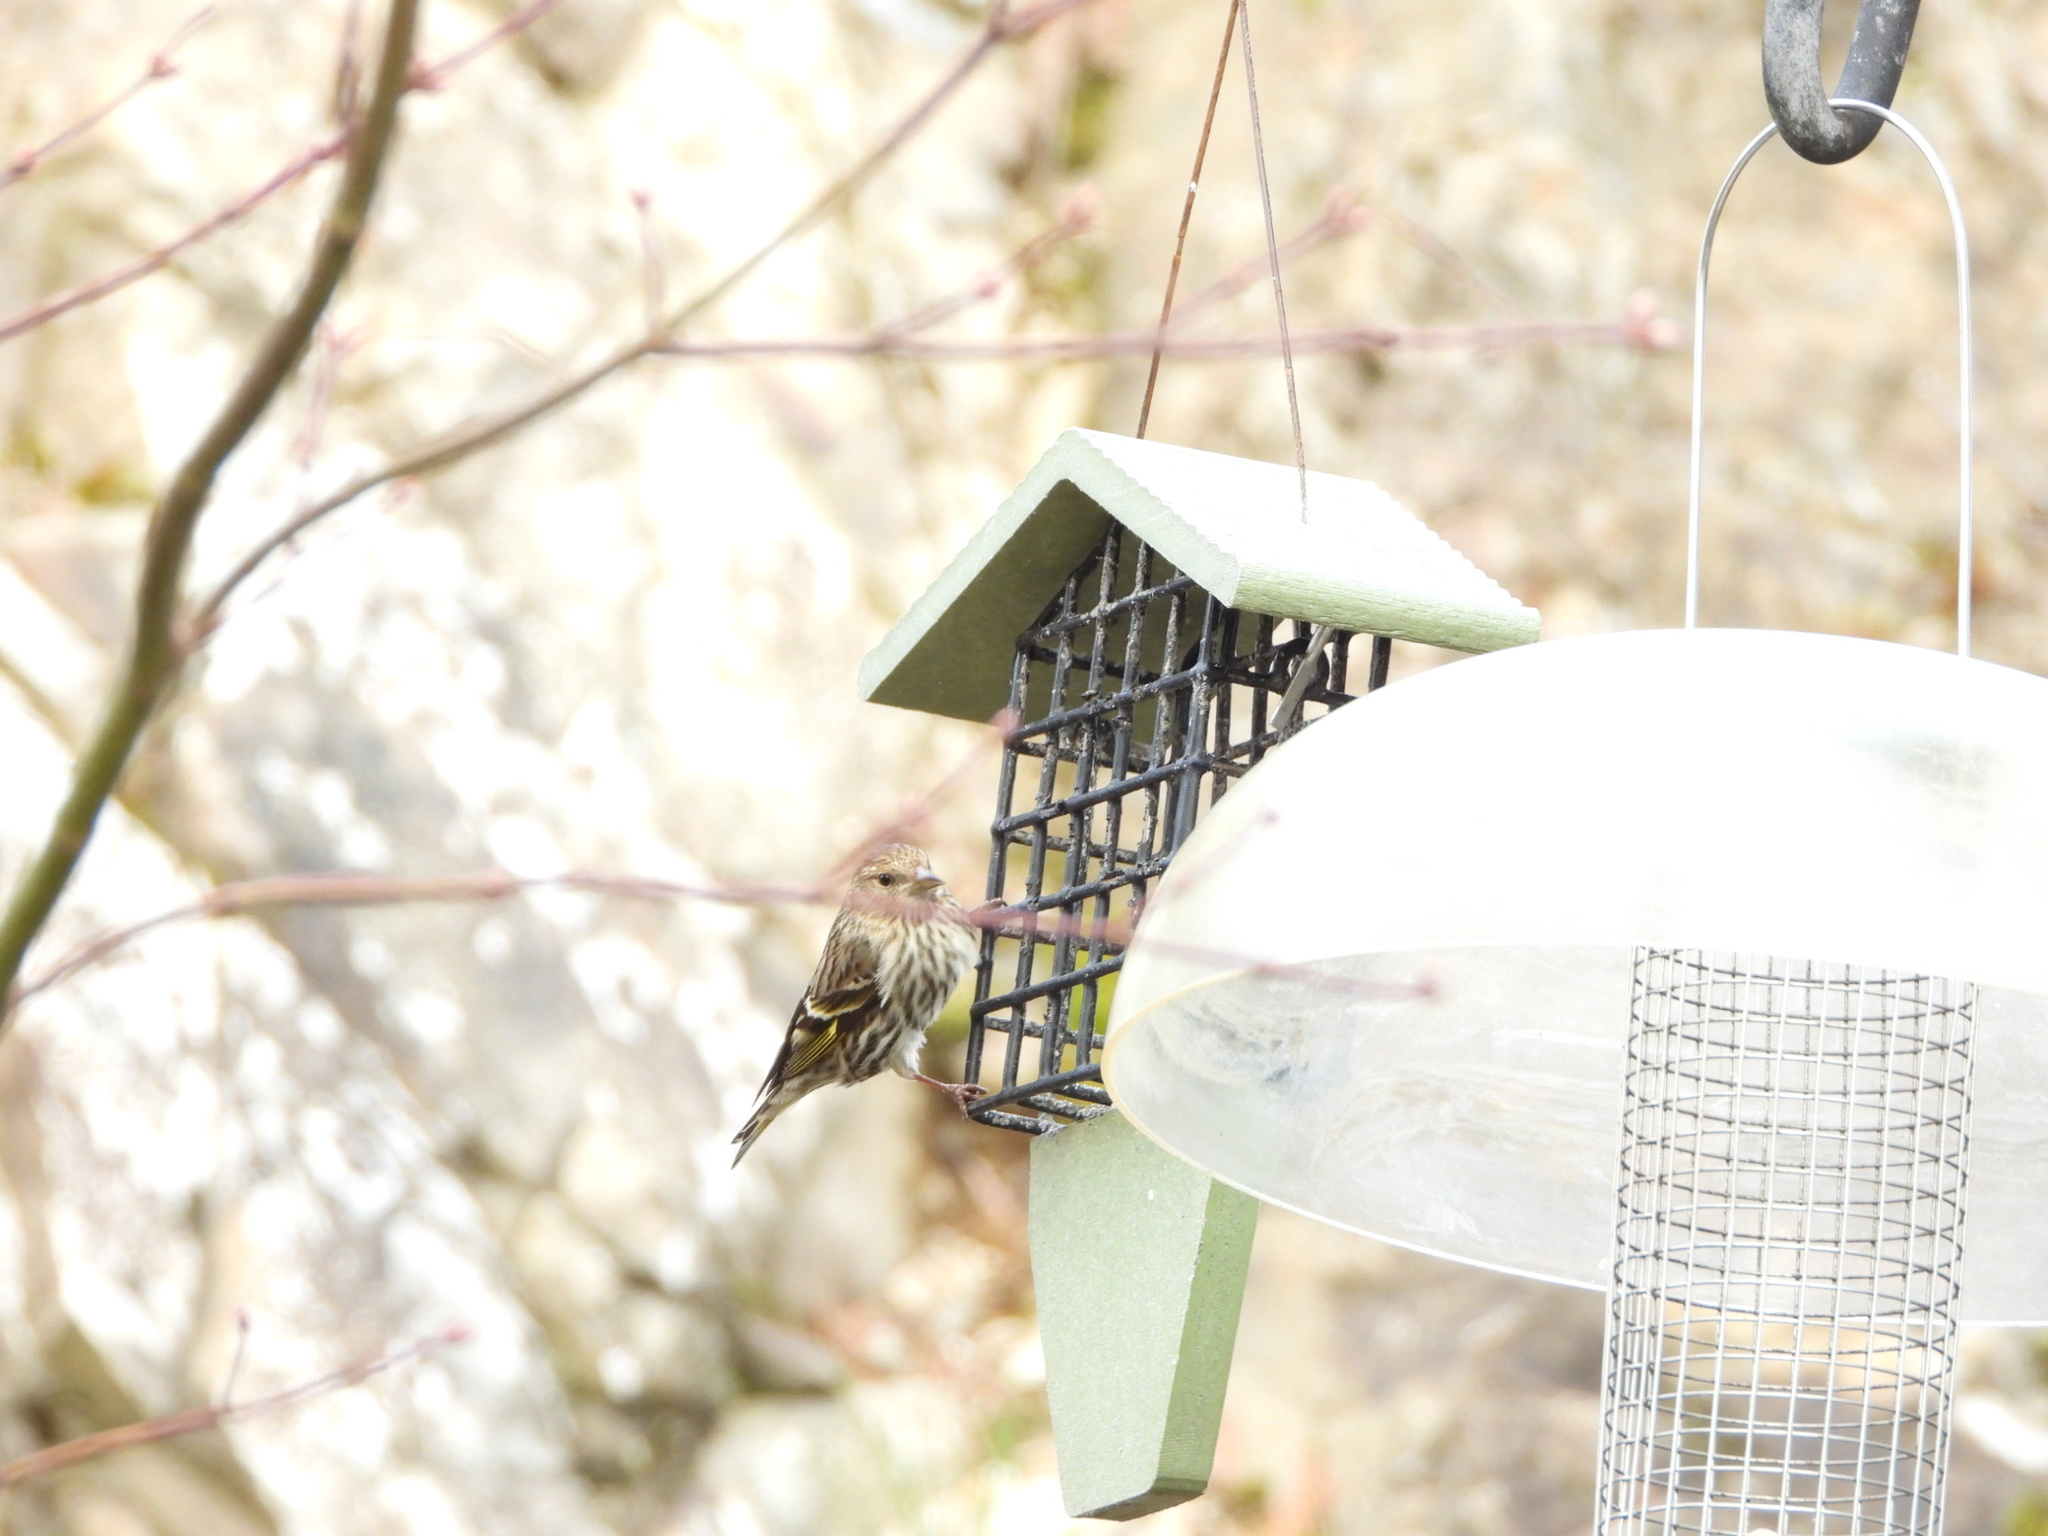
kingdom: Animalia
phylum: Chordata
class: Aves
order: Passeriformes
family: Fringillidae
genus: Spinus
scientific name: Spinus pinus
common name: Pine siskin
